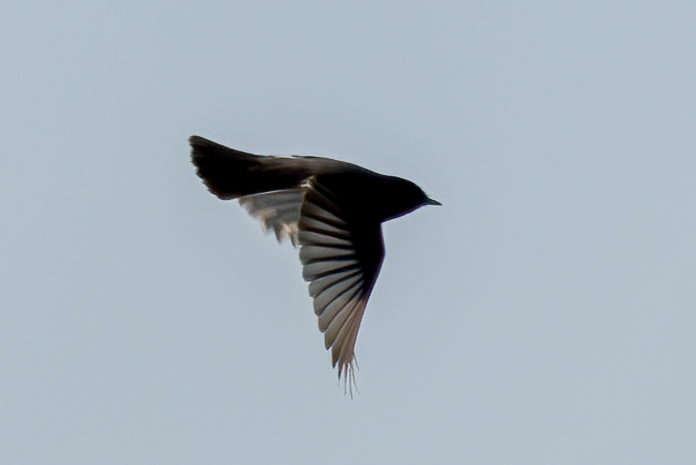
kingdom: Animalia
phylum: Chordata
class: Aves
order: Passeriformes
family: Tyrannidae
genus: Sayornis
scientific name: Sayornis nigricans
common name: Black phoebe
